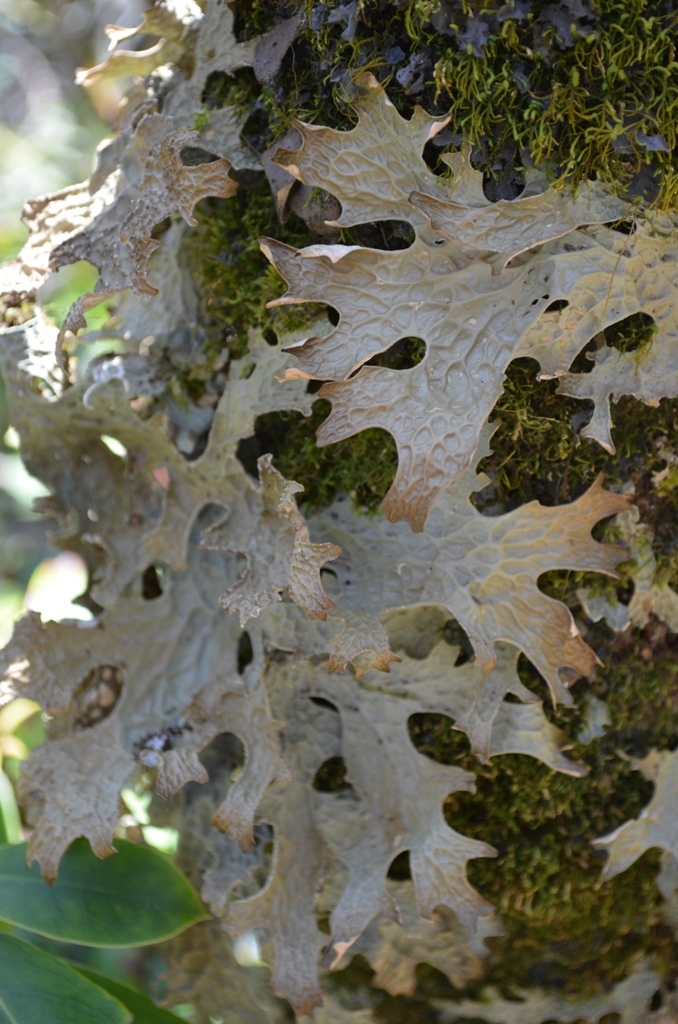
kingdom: Fungi
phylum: Ascomycota
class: Lecanoromycetes
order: Peltigerales
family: Lobariaceae
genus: Lobaria
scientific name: Lobaria pulmonaria
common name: Lungwort
